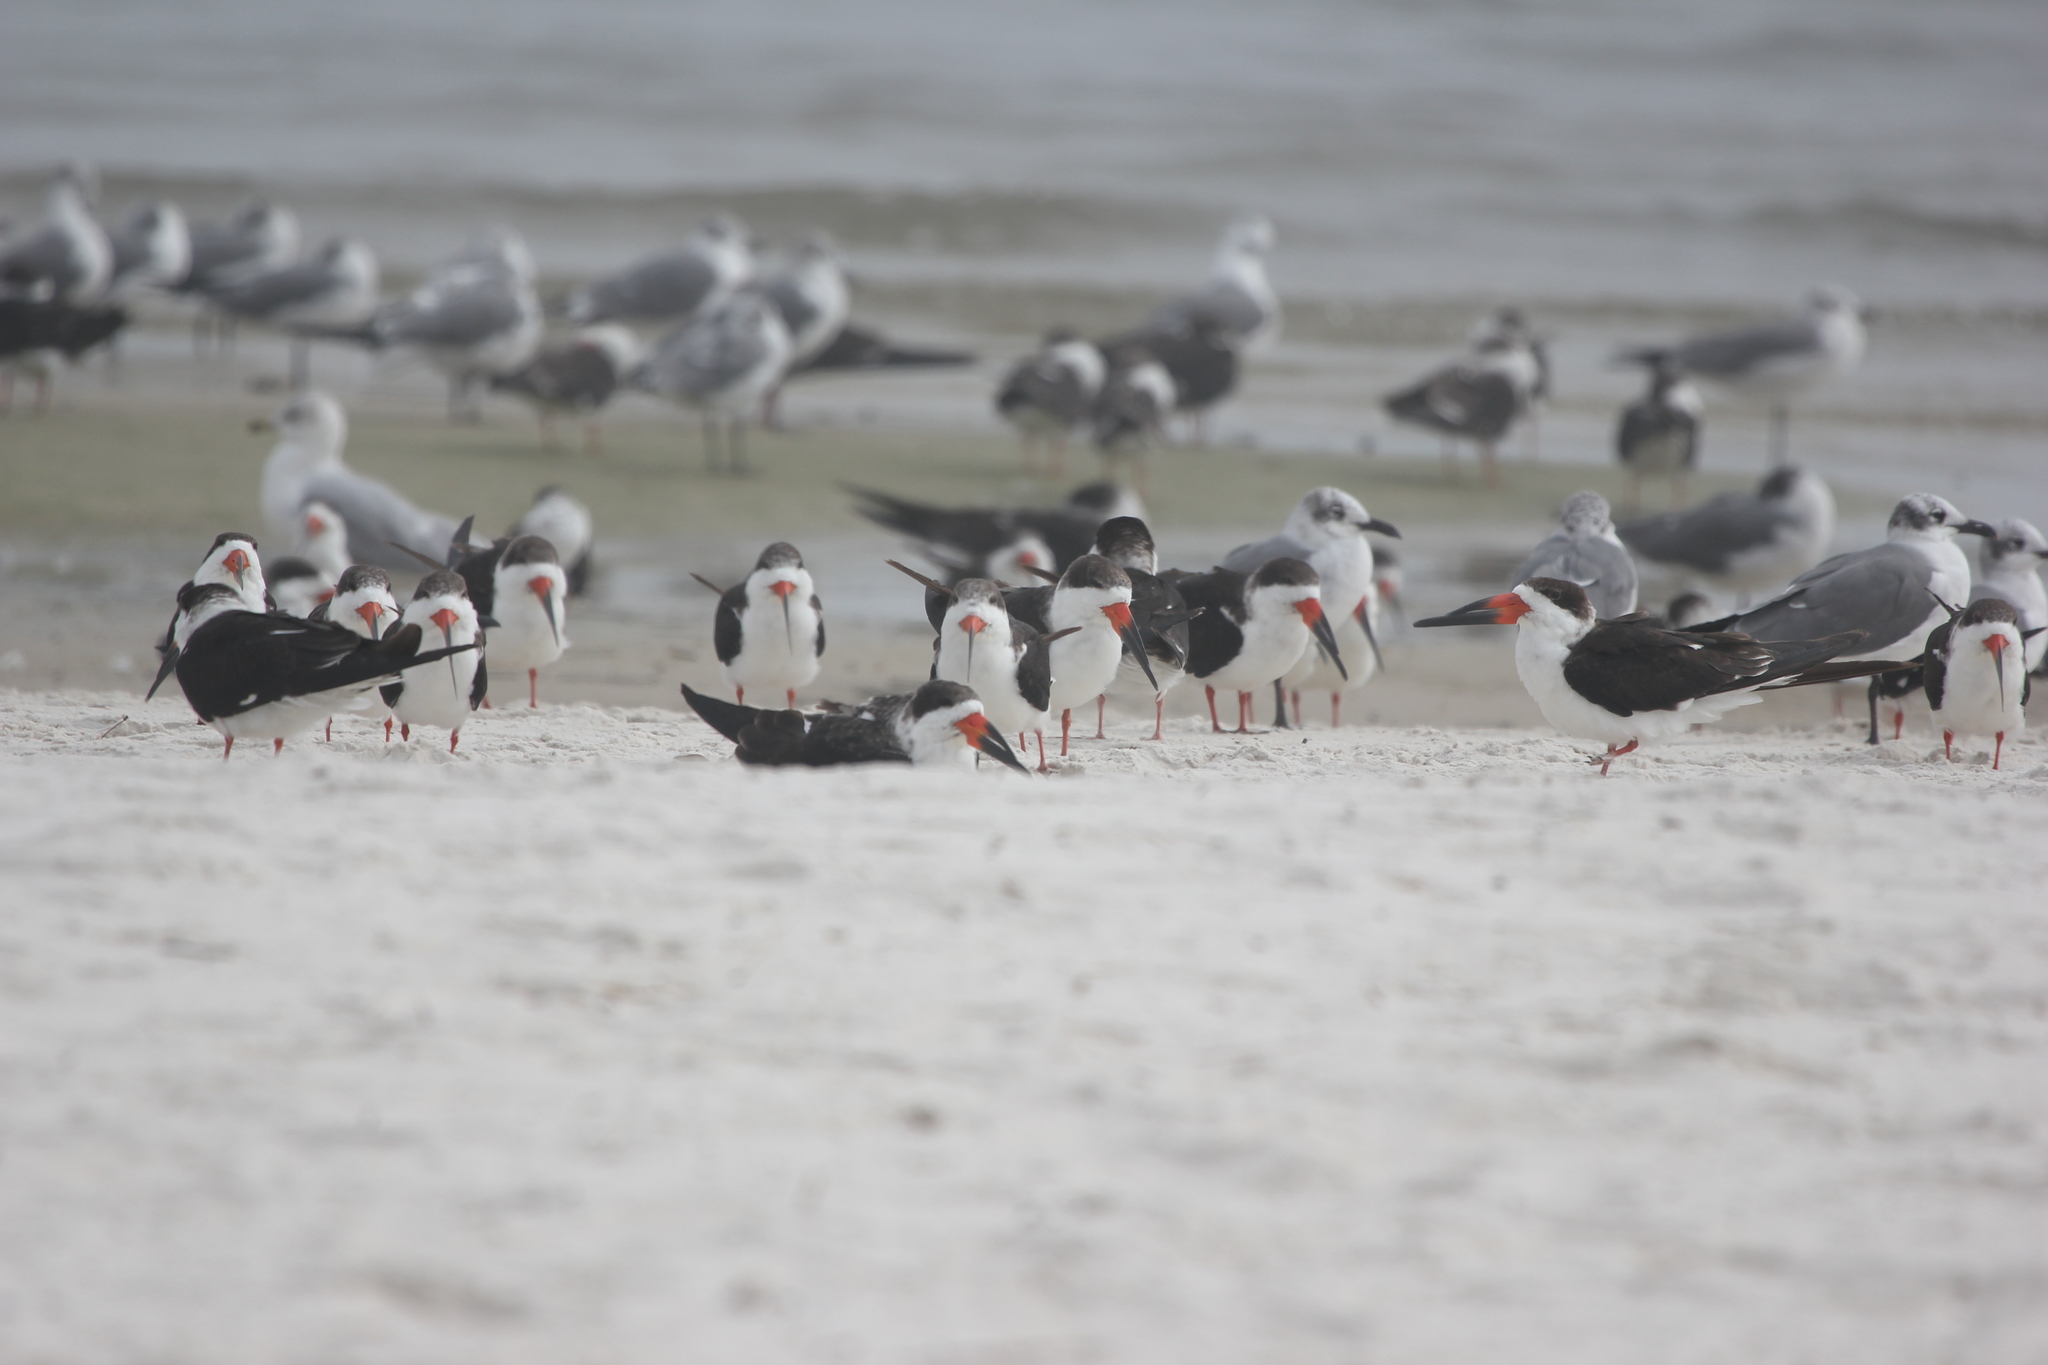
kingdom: Animalia
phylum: Chordata
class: Aves
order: Charadriiformes
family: Laridae
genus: Rynchops
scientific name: Rynchops niger
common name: Black skimmer
